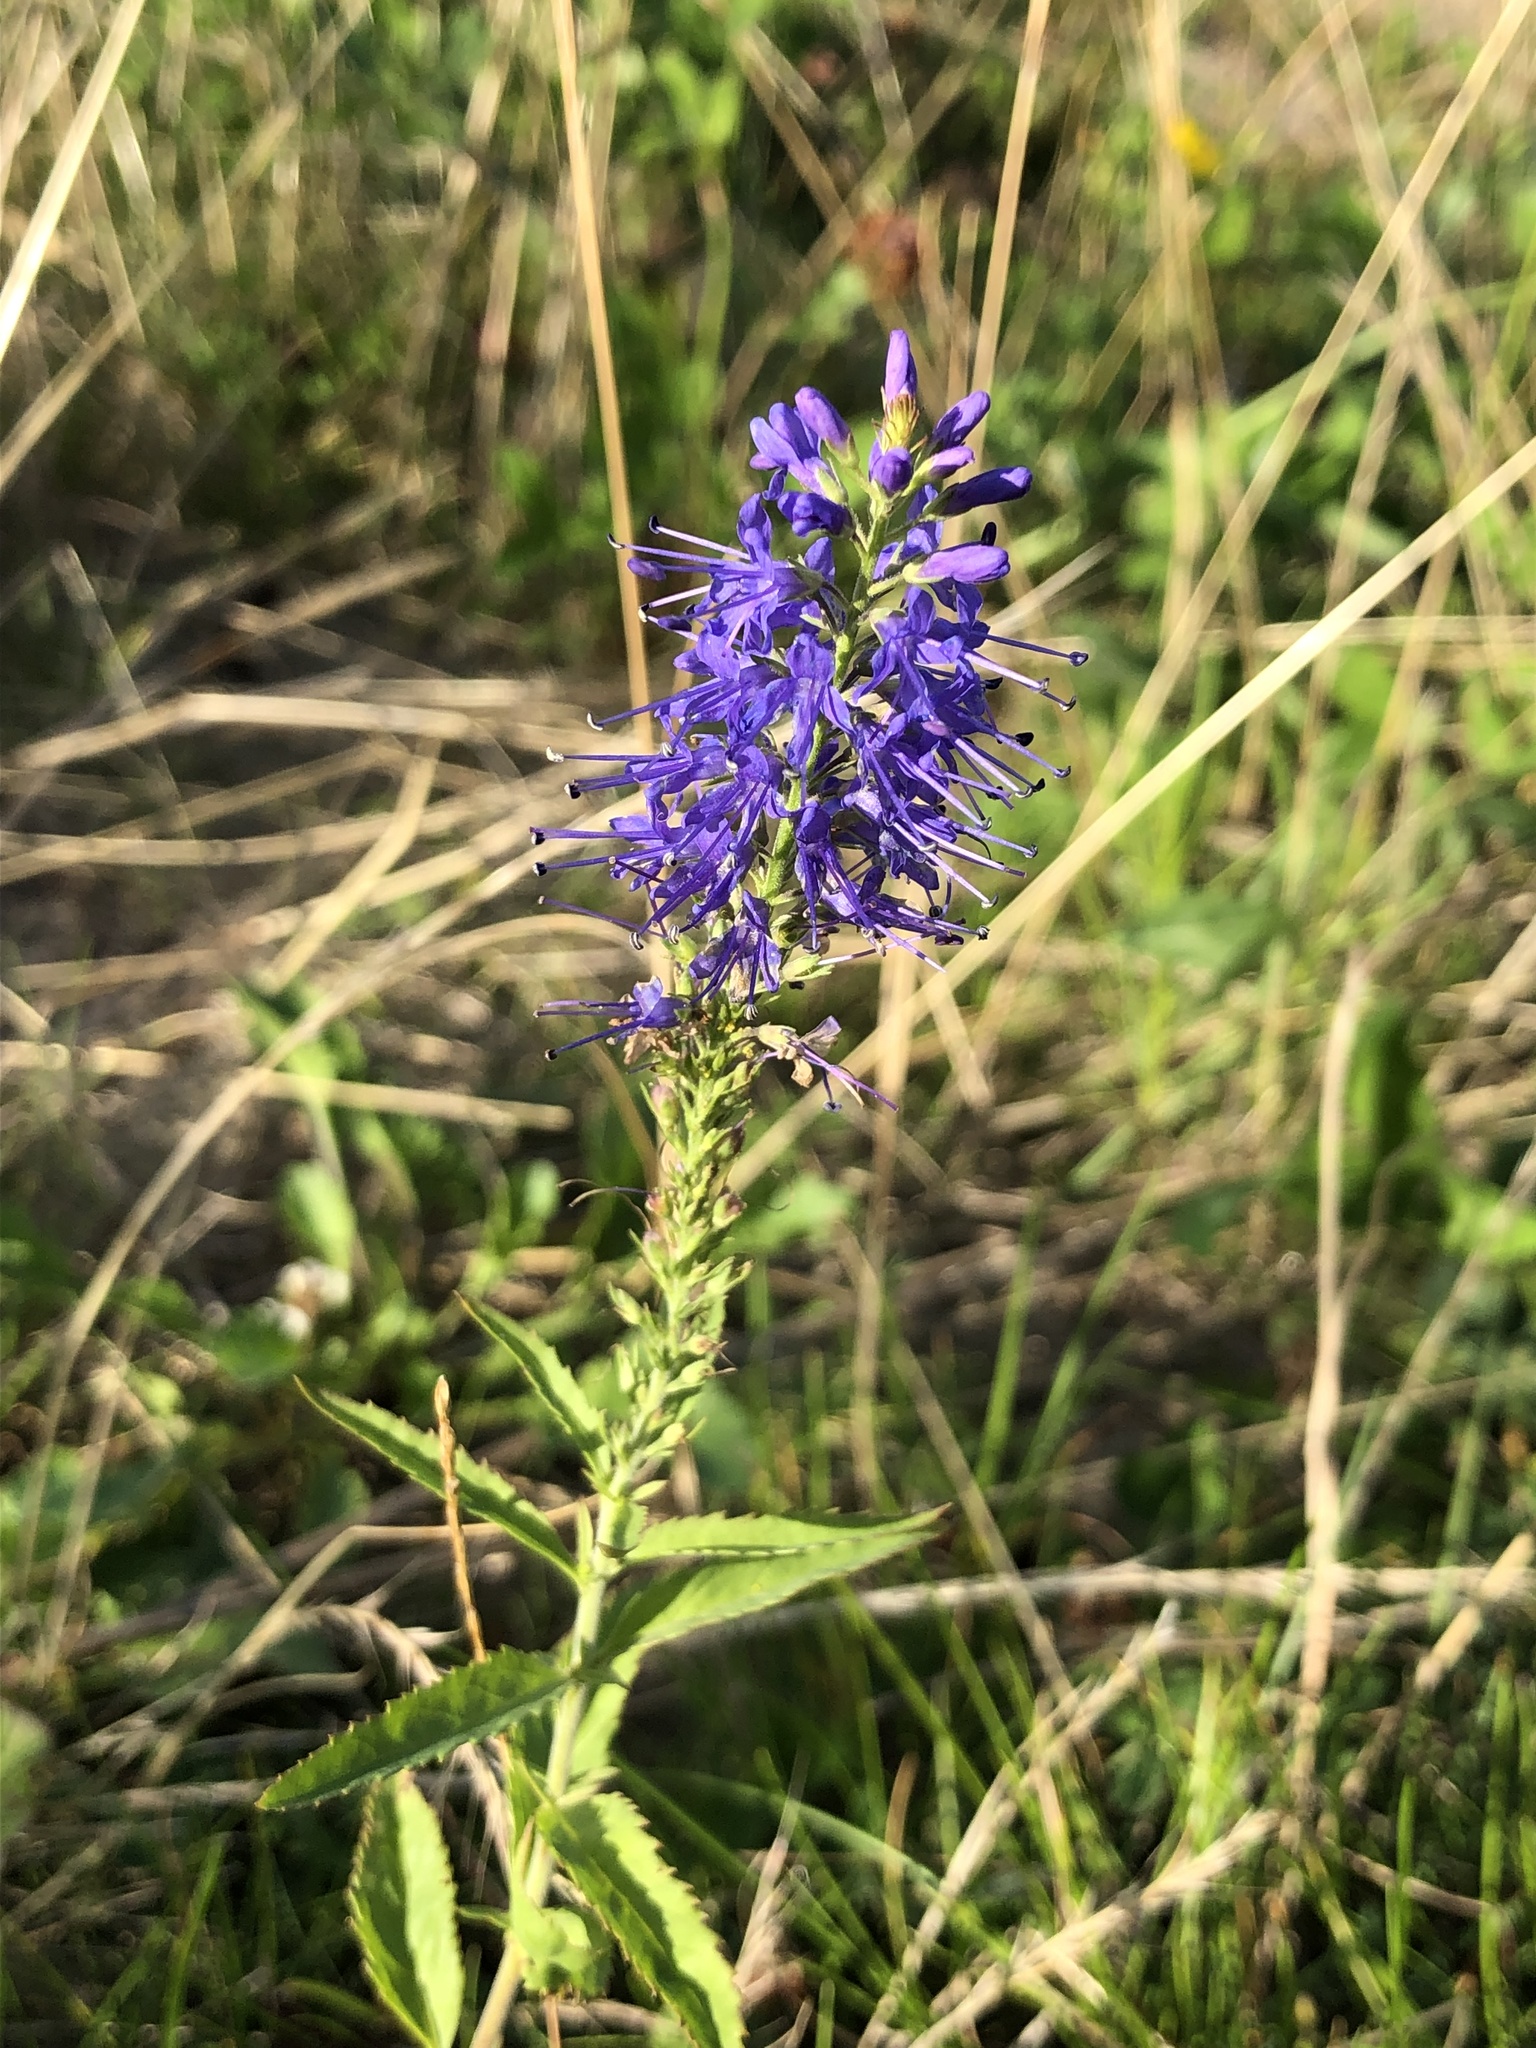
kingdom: Plantae
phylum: Tracheophyta
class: Magnoliopsida
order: Lamiales
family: Plantaginaceae
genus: Veronica
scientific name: Veronica longifolia
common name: Garden speedwell
